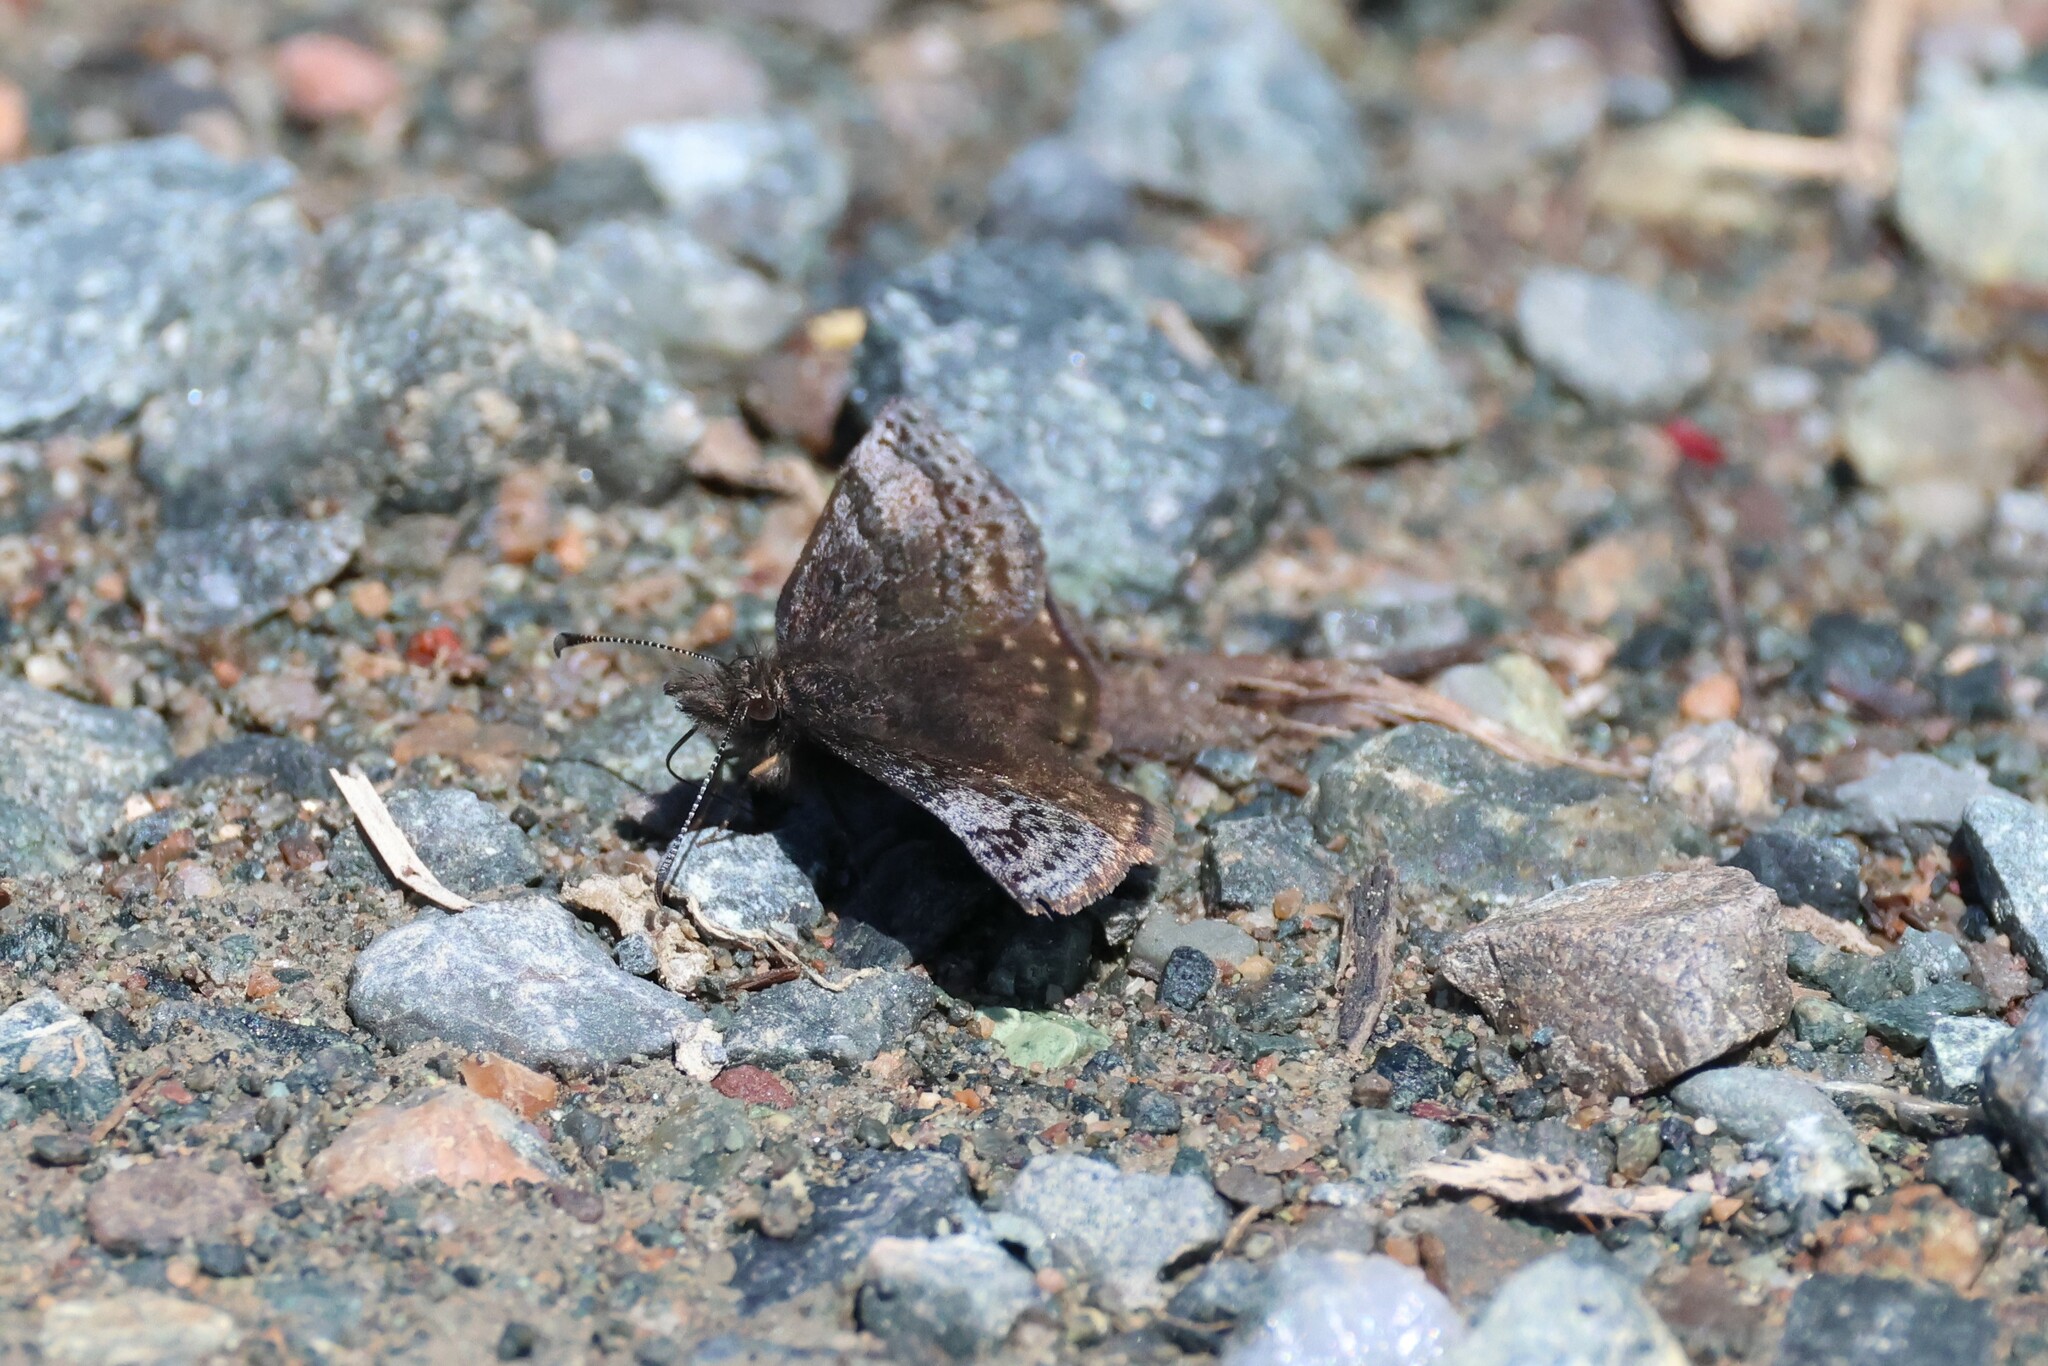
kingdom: Animalia
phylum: Arthropoda
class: Insecta
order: Lepidoptera
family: Hesperiidae
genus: Erynnis
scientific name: Erynnis icelus
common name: Dreamy duskywing
